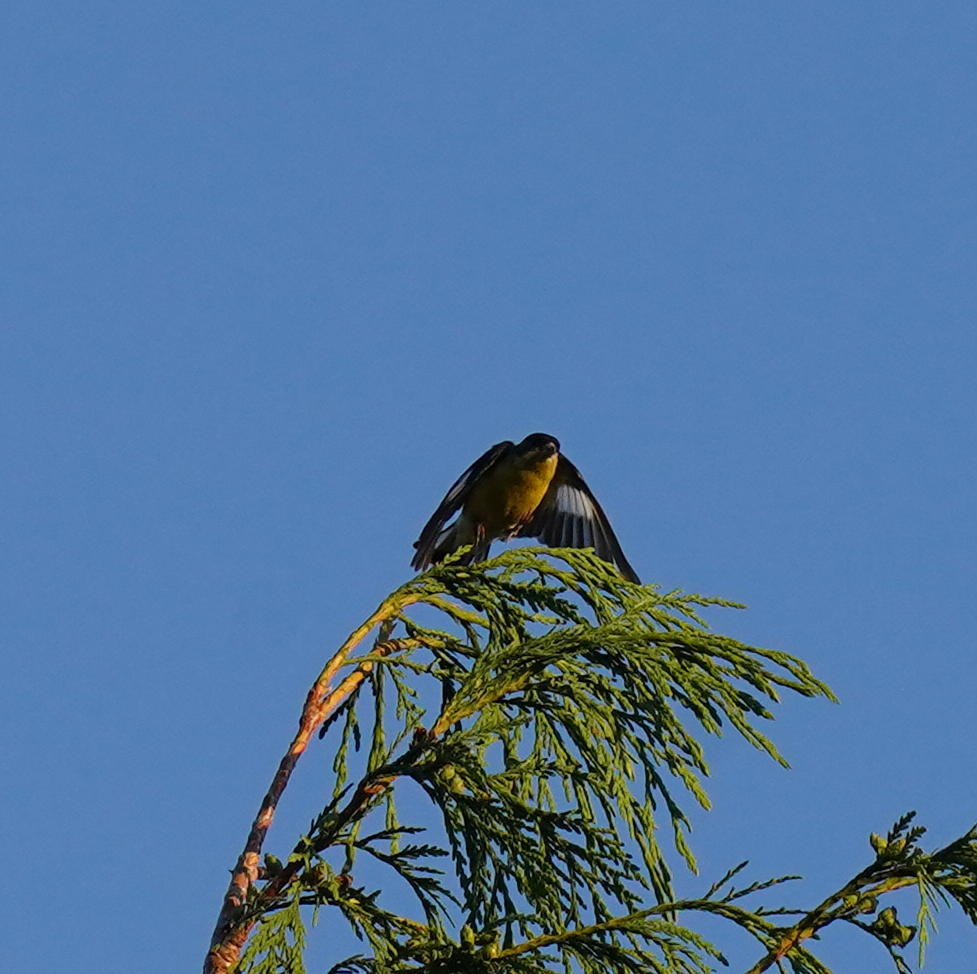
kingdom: Animalia
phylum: Chordata
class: Aves
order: Passeriformes
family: Fringillidae
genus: Spinus
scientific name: Spinus psaltria
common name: Lesser goldfinch
